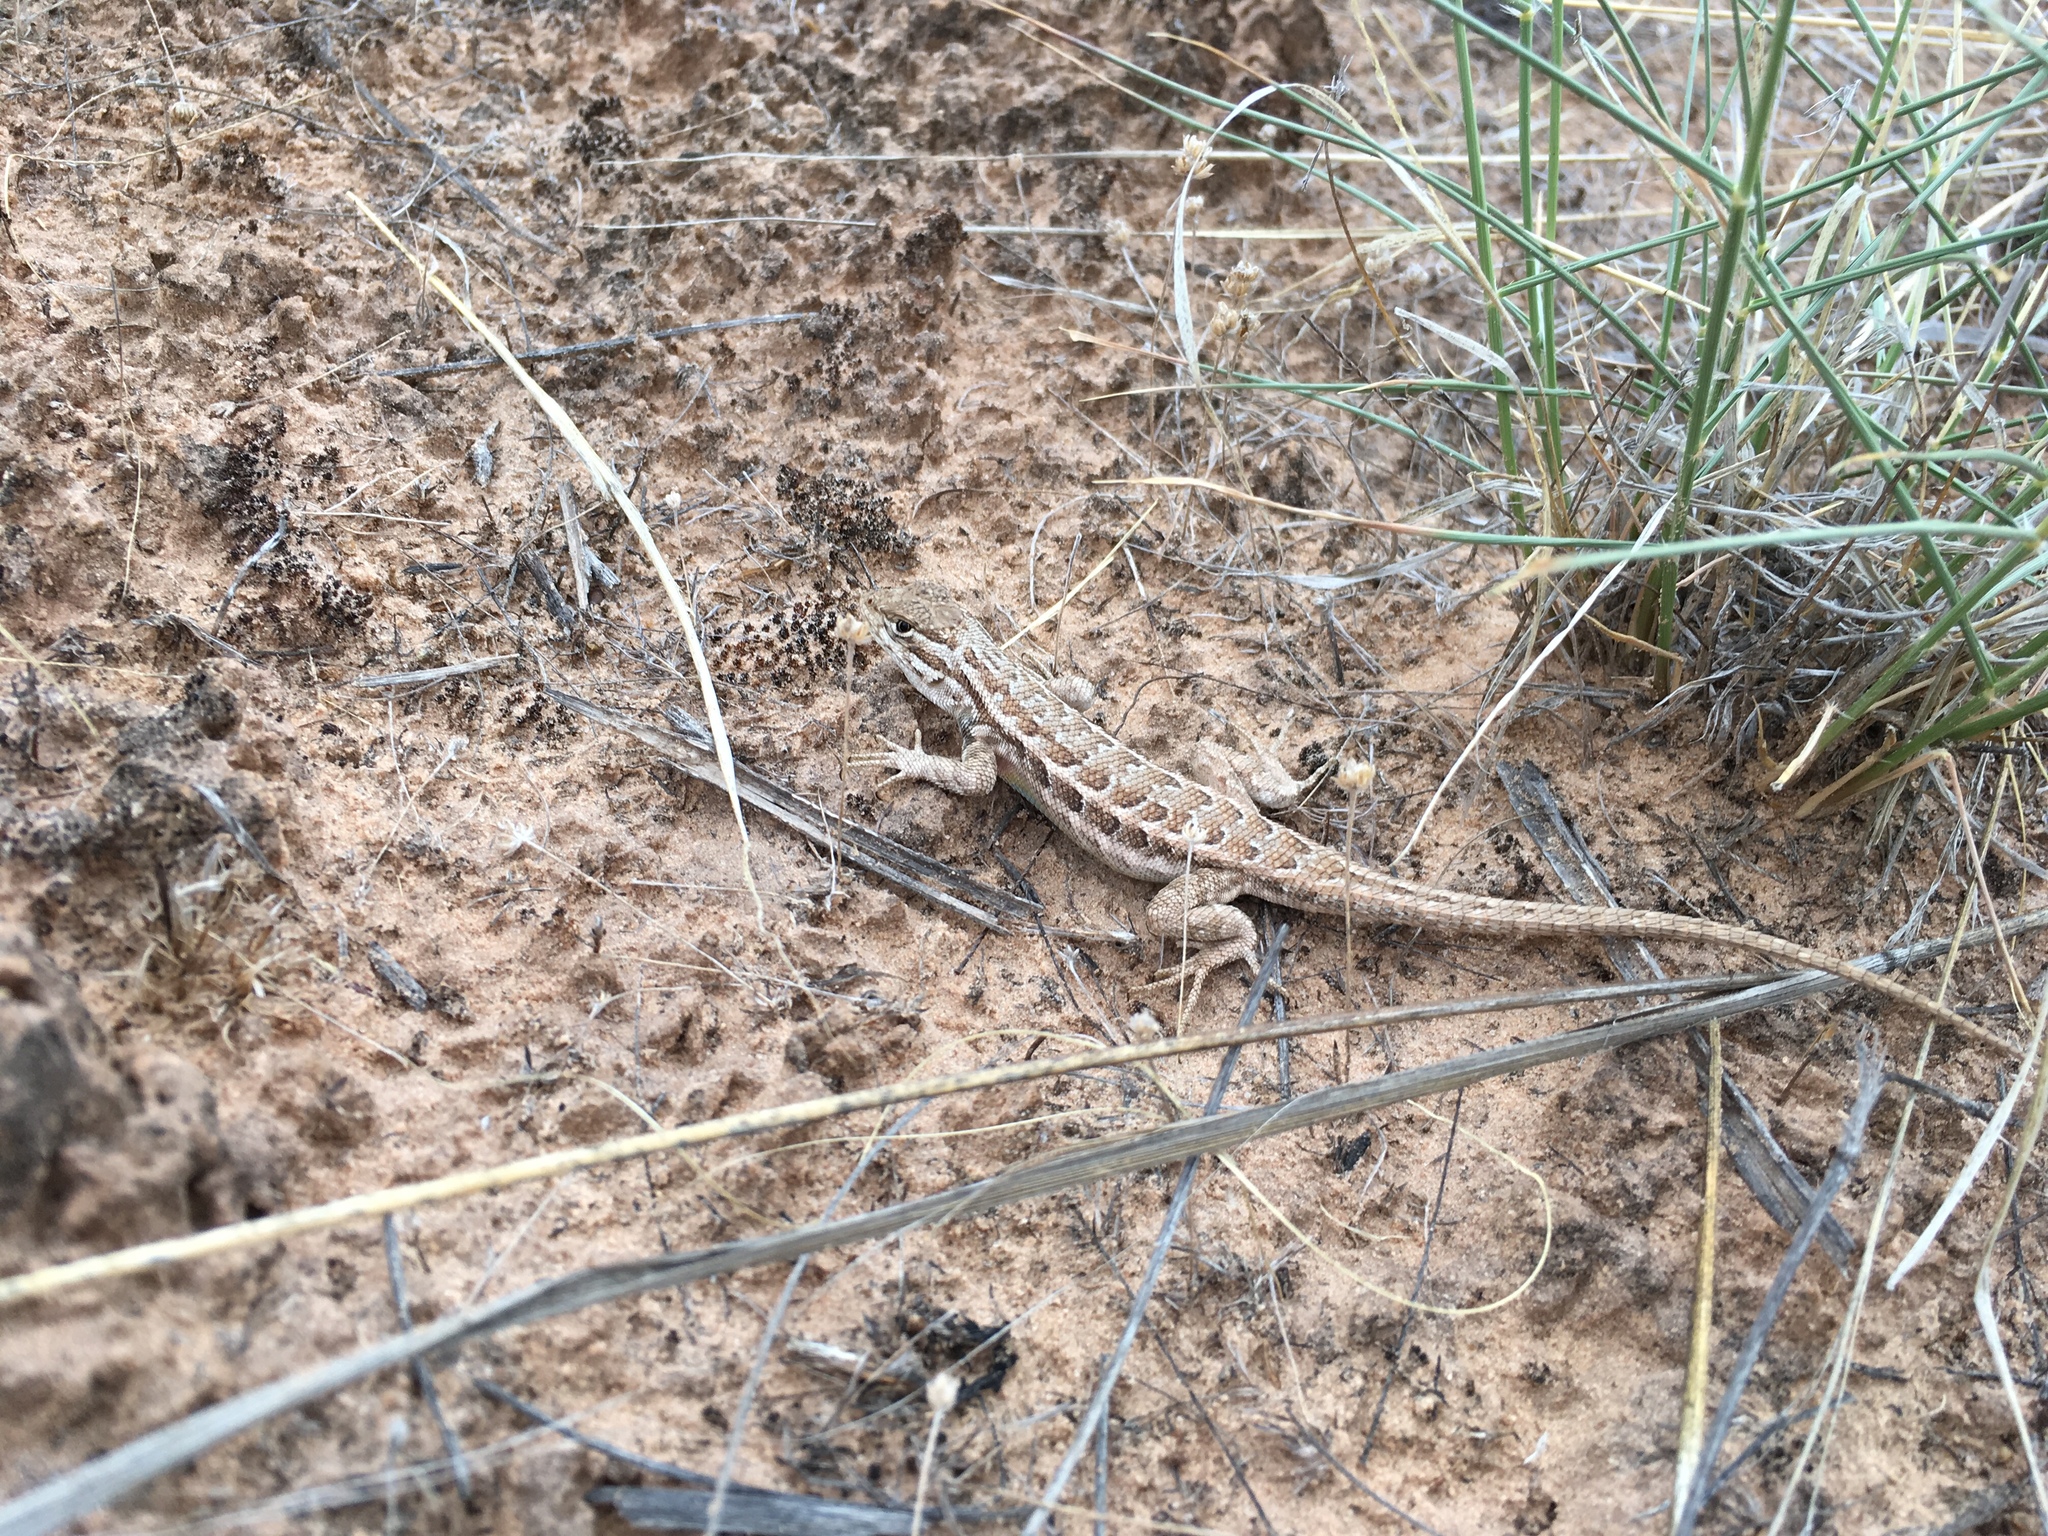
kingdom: Animalia
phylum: Chordata
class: Squamata
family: Phrynosomatidae
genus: Sceloporus
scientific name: Sceloporus graciosus
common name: Sagebrush lizard
